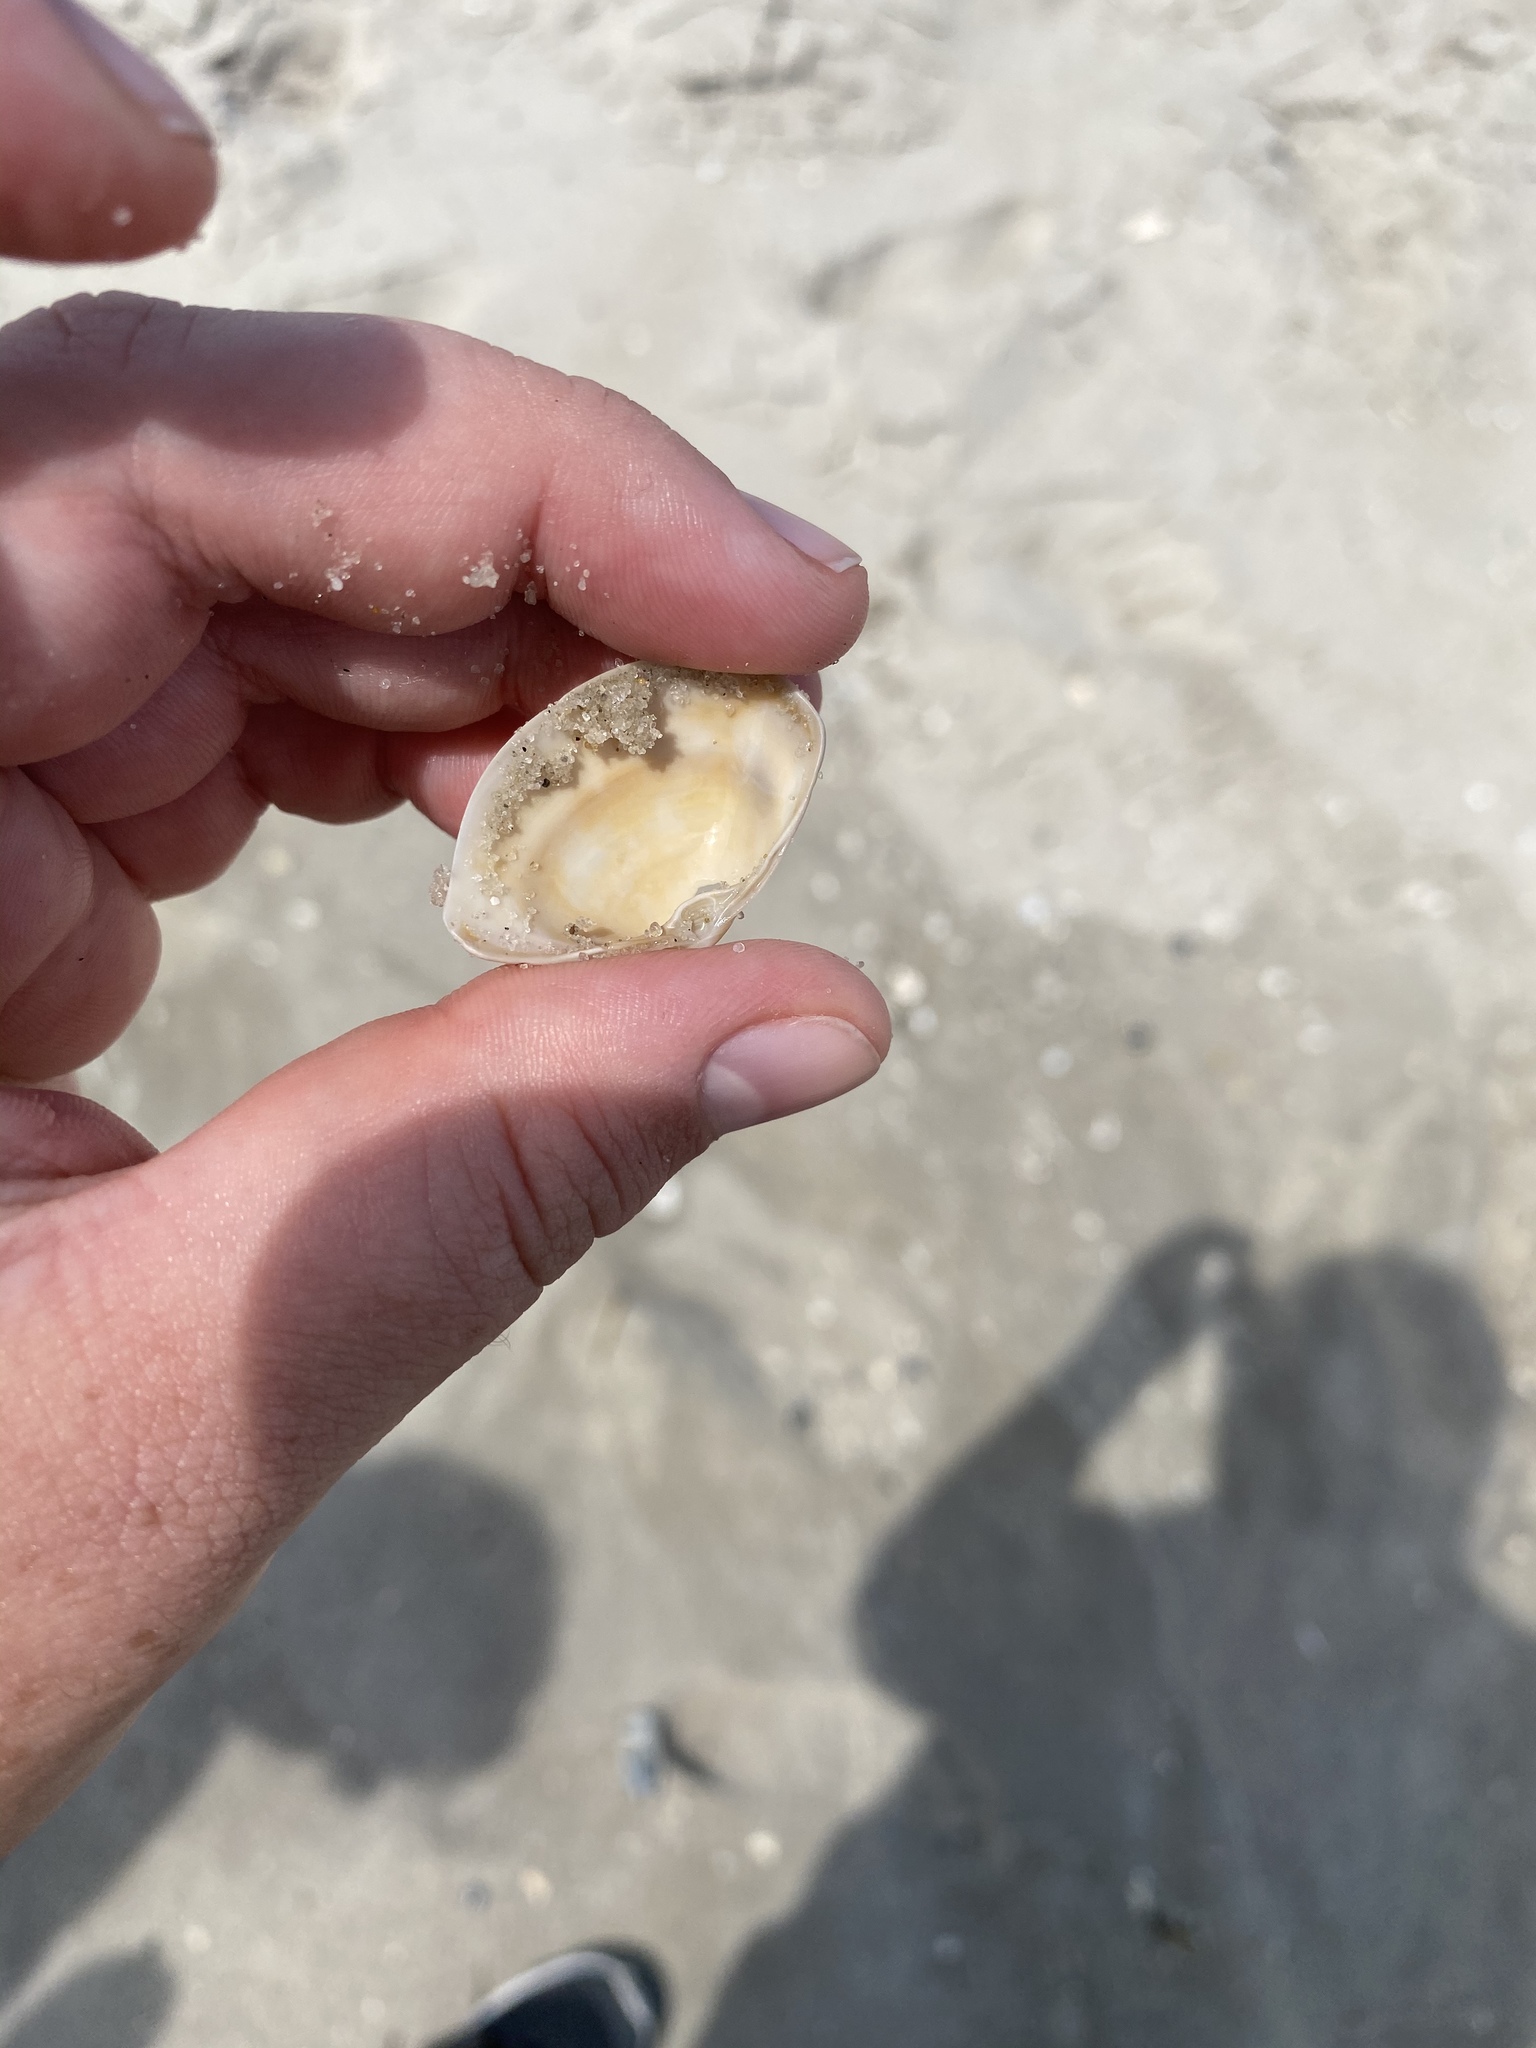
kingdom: Animalia
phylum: Mollusca
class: Bivalvia
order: Venerida
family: Mactridae
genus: Spisula
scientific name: Spisula solidissima
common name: Atlantic surf clam
